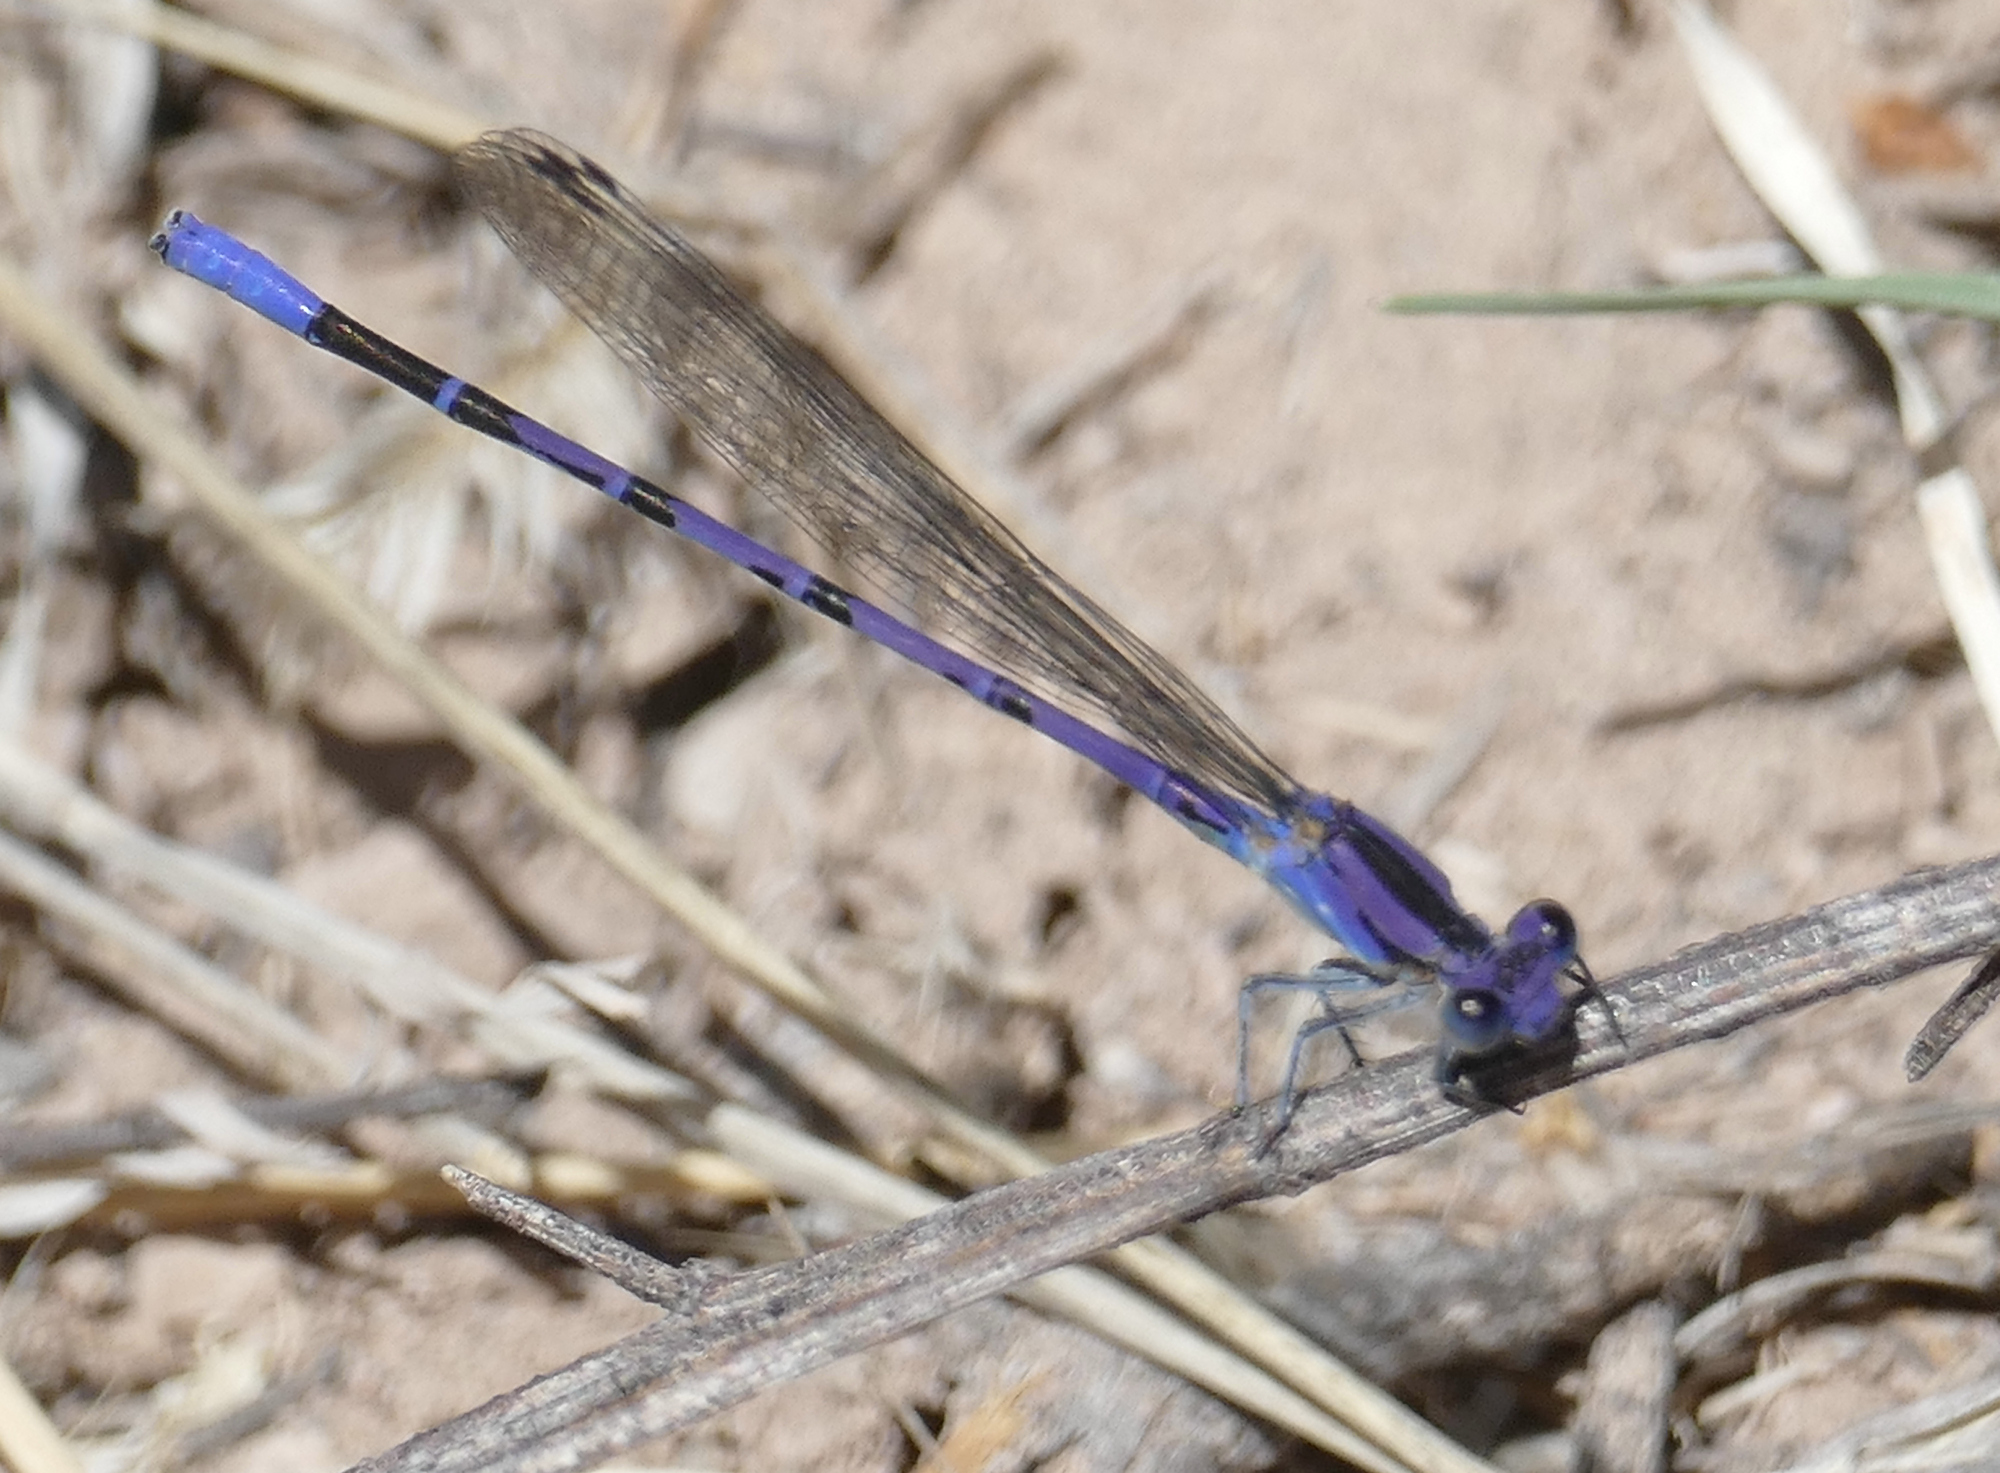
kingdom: Animalia
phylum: Arthropoda
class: Insecta
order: Odonata
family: Coenagrionidae
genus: Argia
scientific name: Argia funebris
